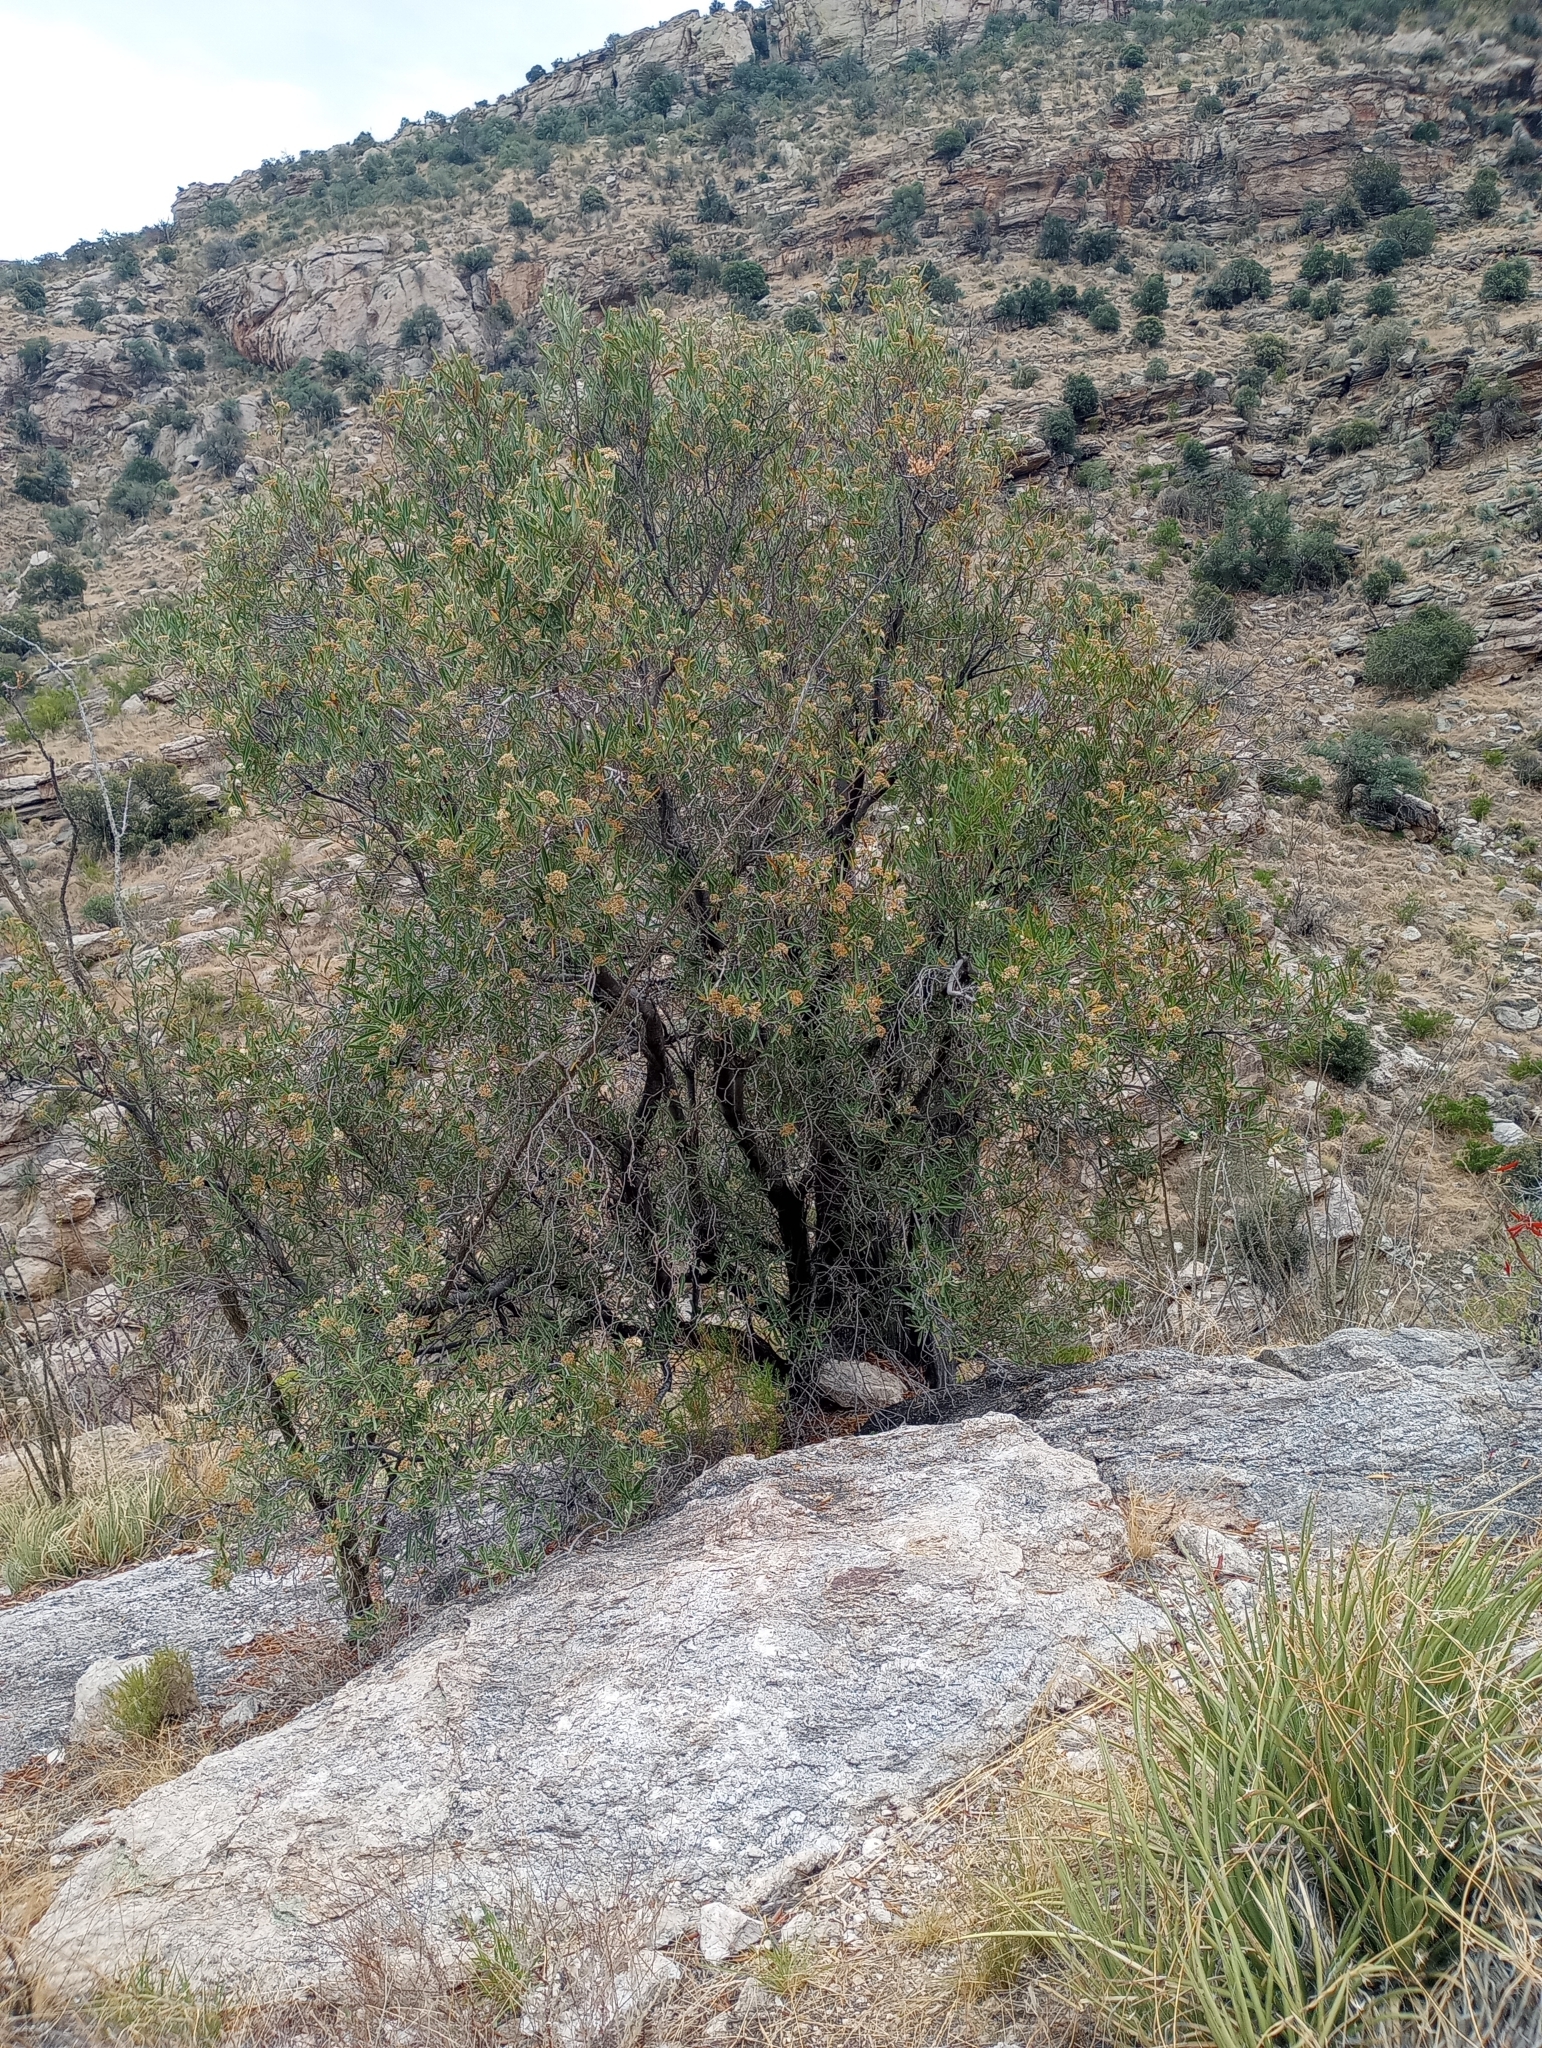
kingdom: Plantae
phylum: Tracheophyta
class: Magnoliopsida
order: Rosales
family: Rosaceae
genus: Vauquelinia
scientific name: Vauquelinia californica
